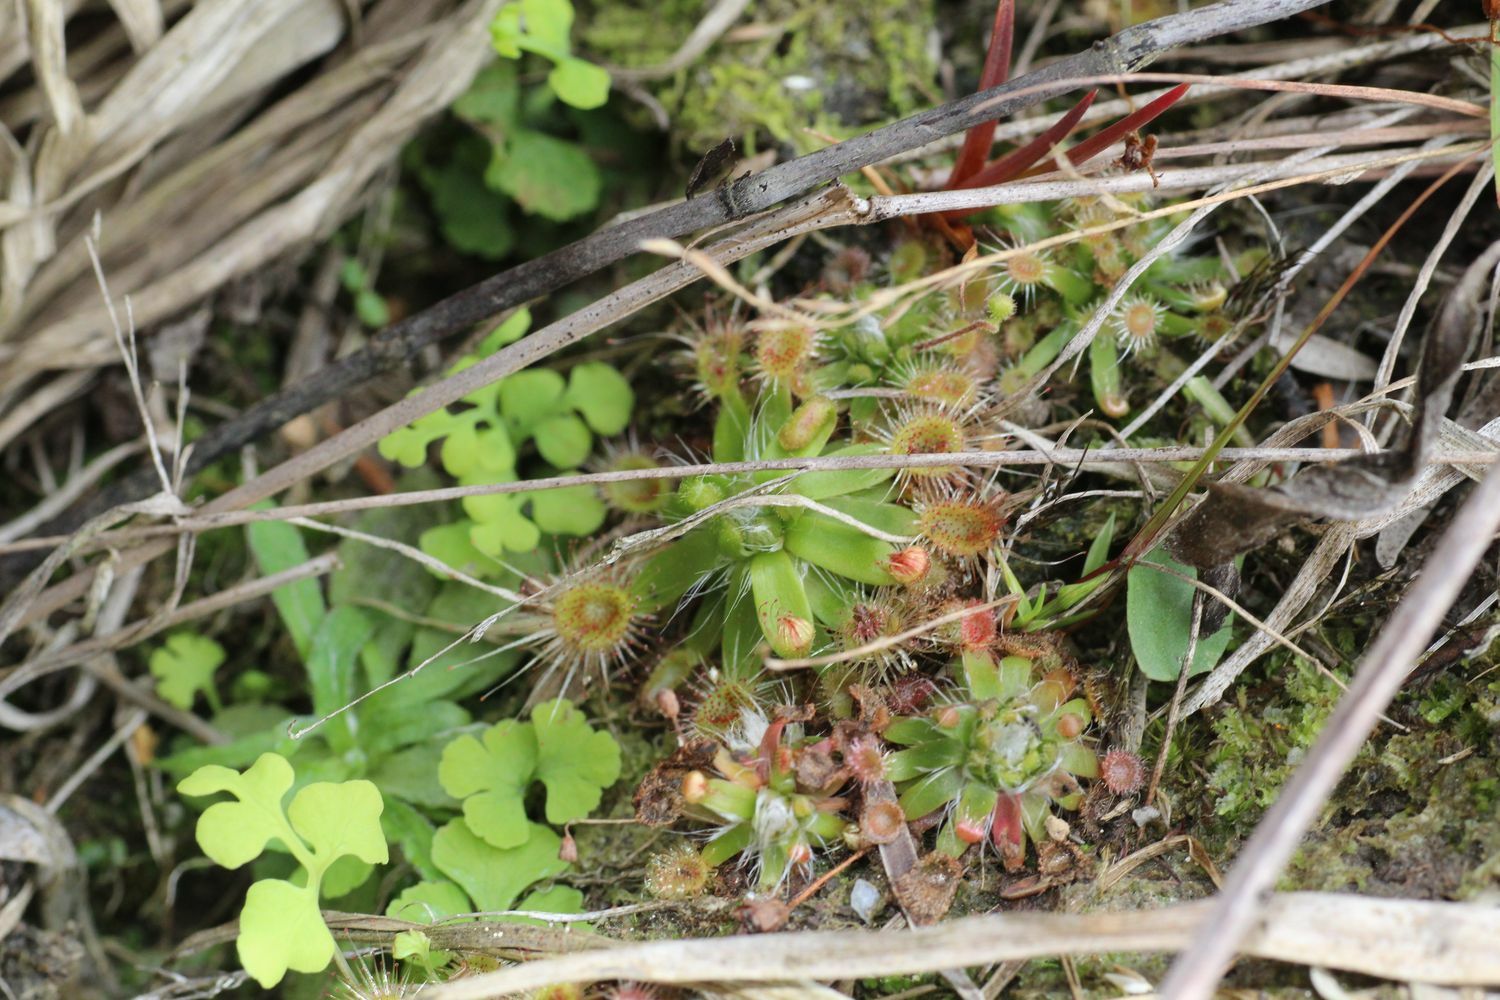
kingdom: Plantae
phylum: Tracheophyta
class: Magnoliopsida
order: Caryophyllales
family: Droseraceae
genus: Drosera
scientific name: Drosera pulchella
